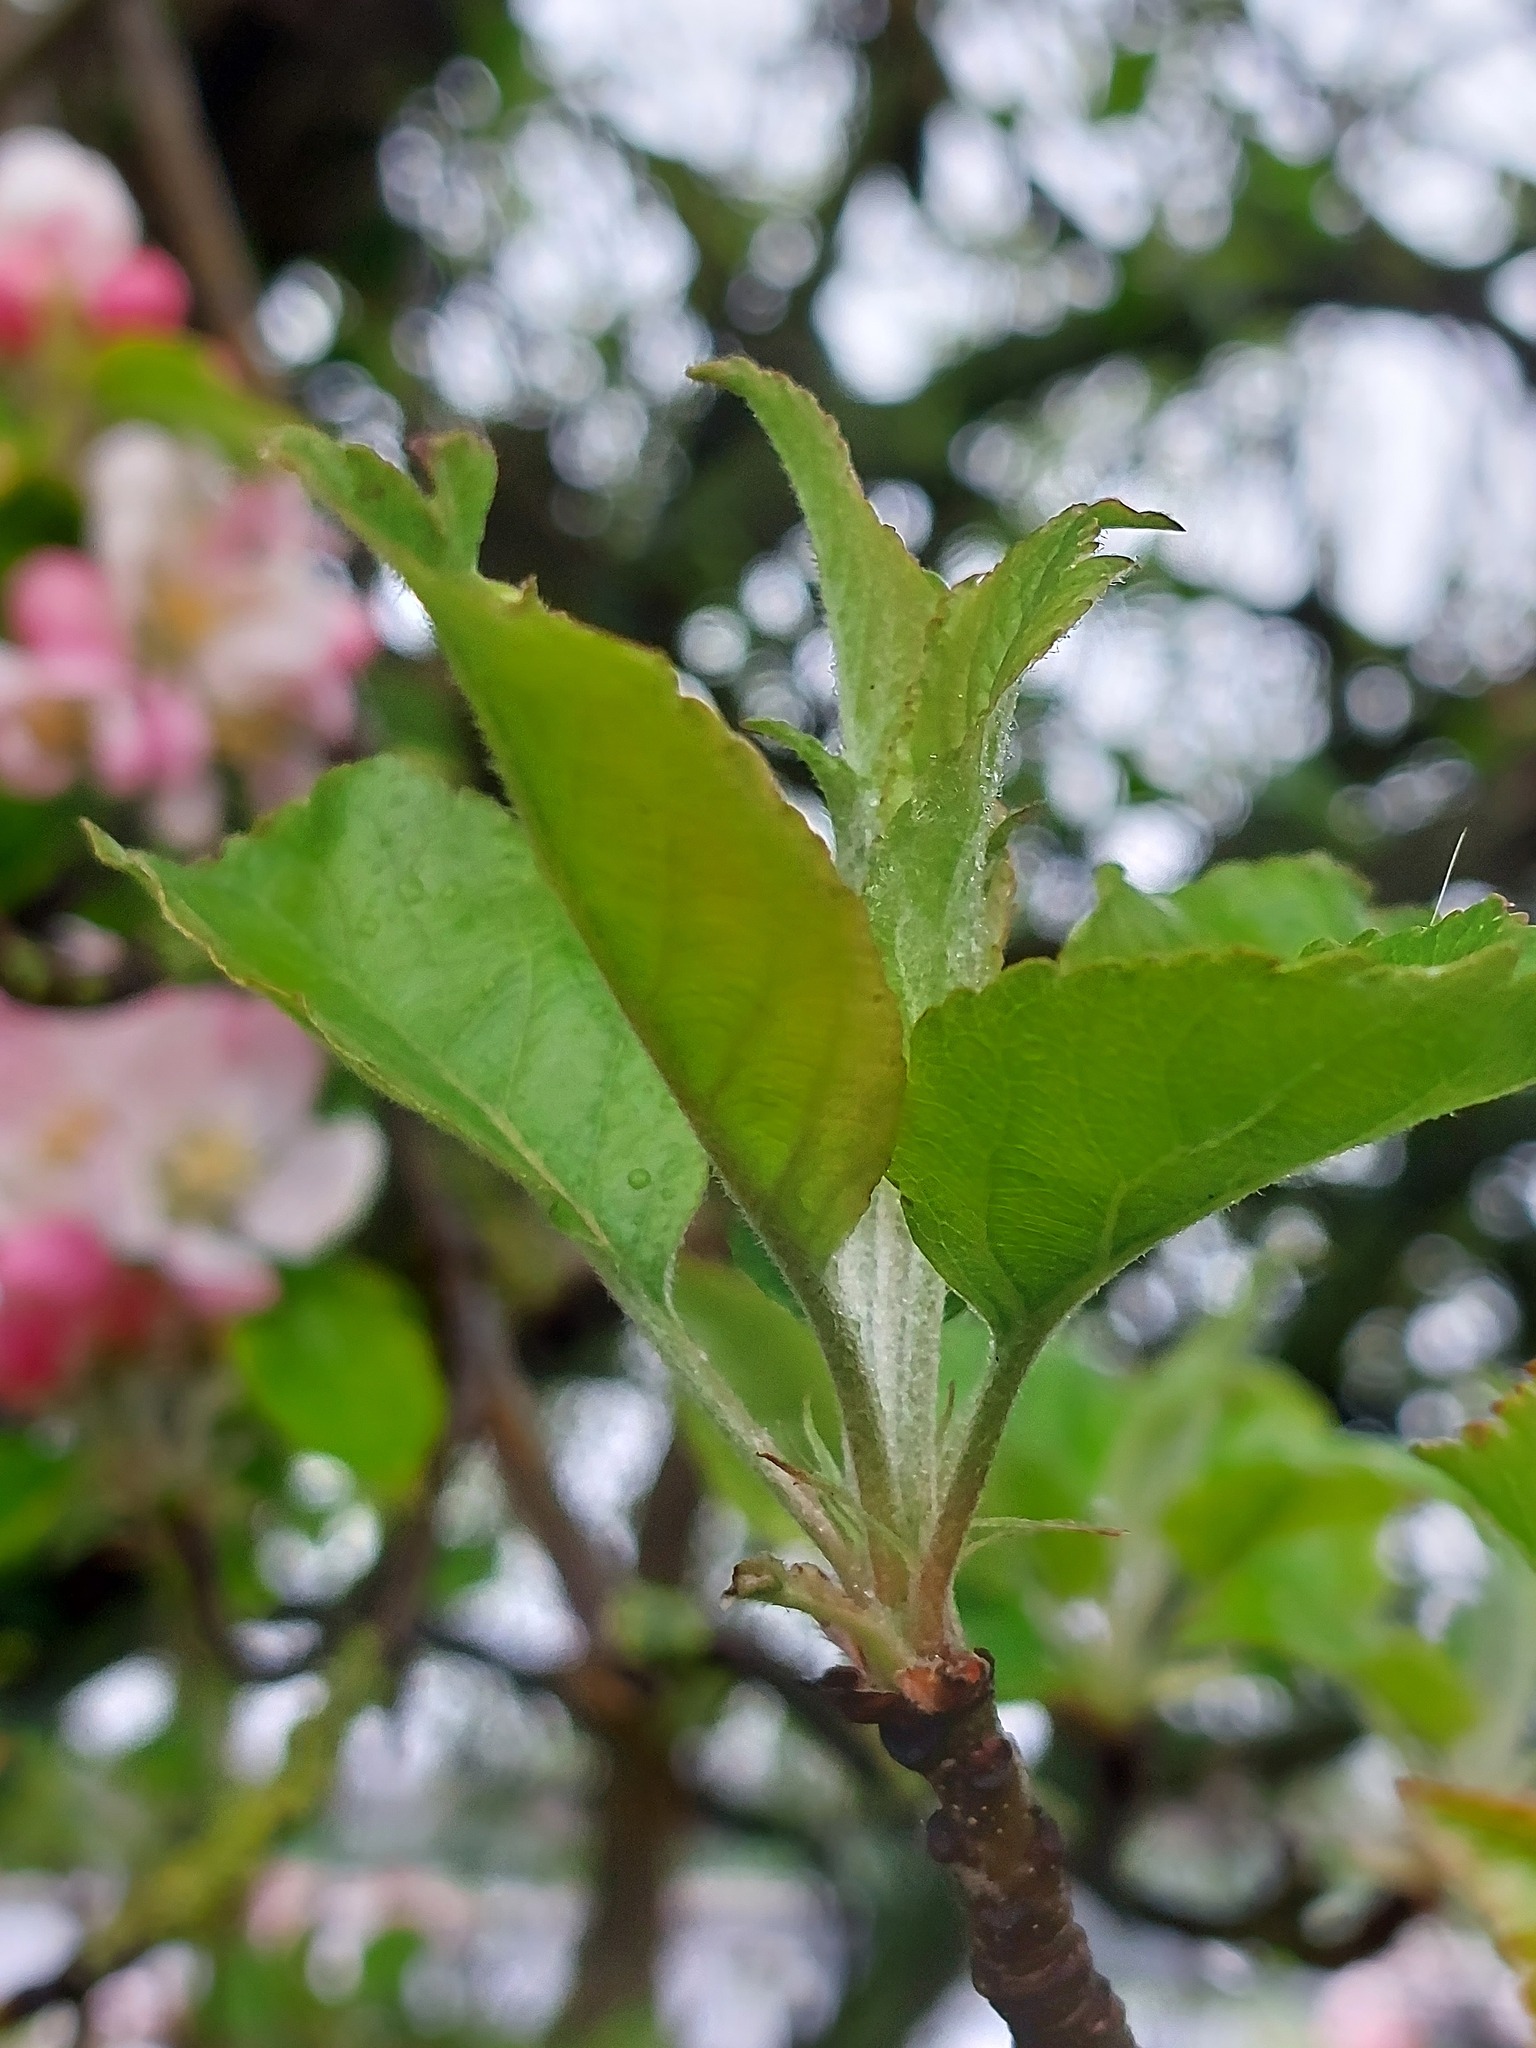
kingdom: Plantae
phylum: Tracheophyta
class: Magnoliopsida
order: Rosales
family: Rosaceae
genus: Malus
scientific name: Malus sylvestris
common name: Crab apple
